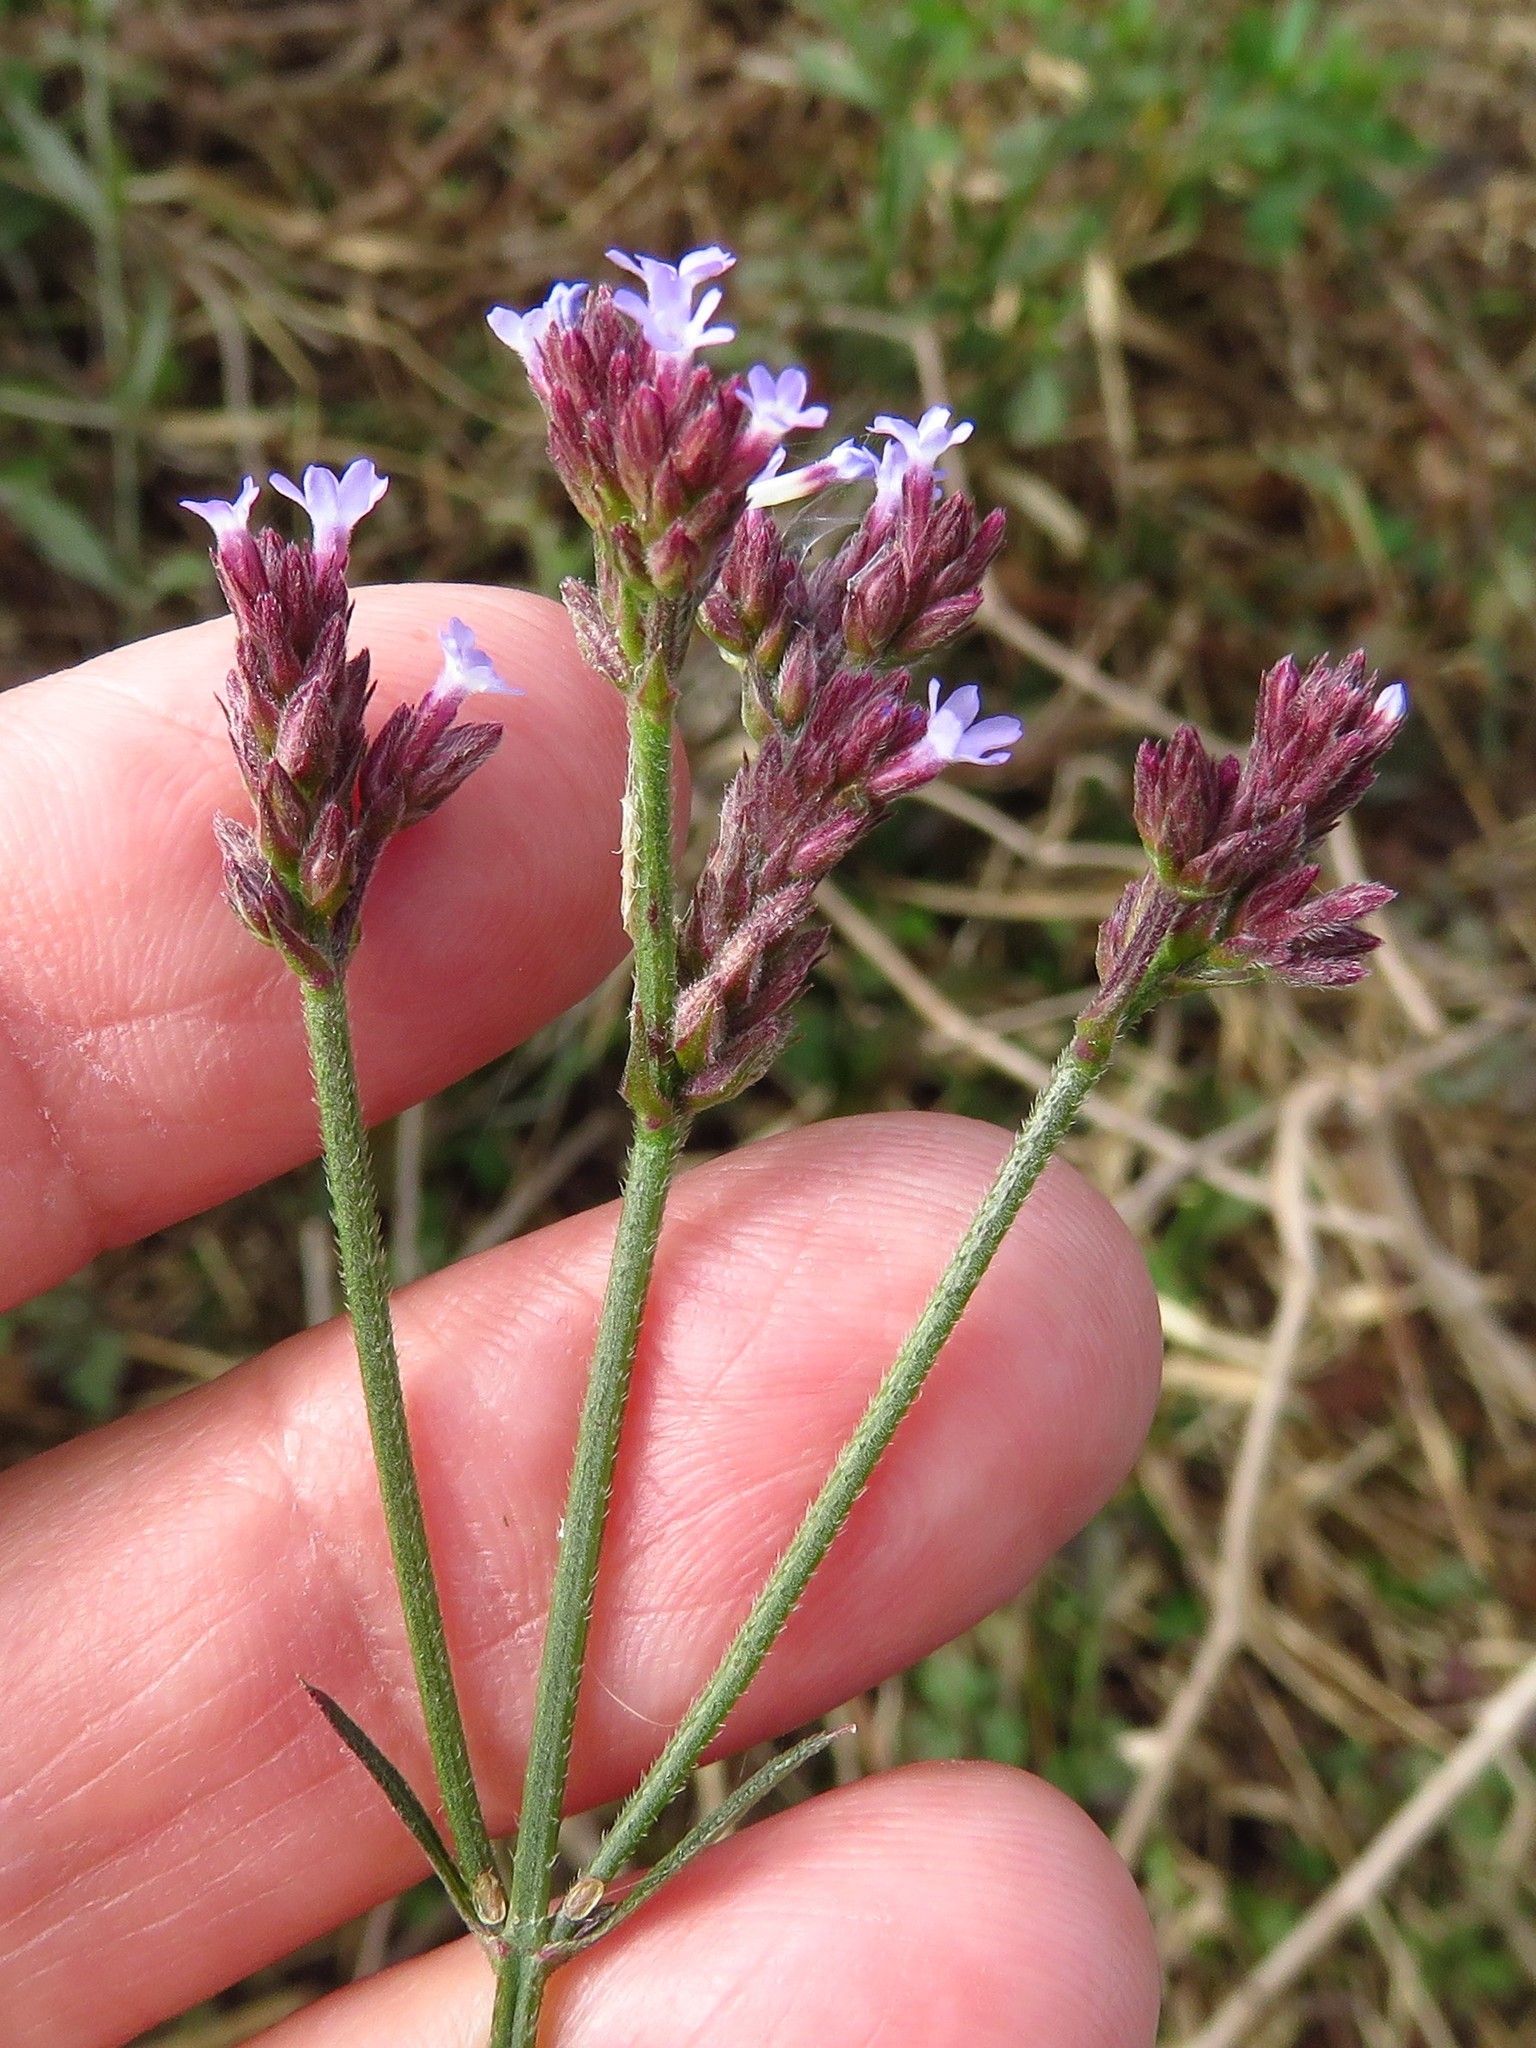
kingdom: Plantae
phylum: Tracheophyta
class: Magnoliopsida
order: Lamiales
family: Verbenaceae
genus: Verbena
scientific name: Verbena brasiliensis
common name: Brazilian vervain
